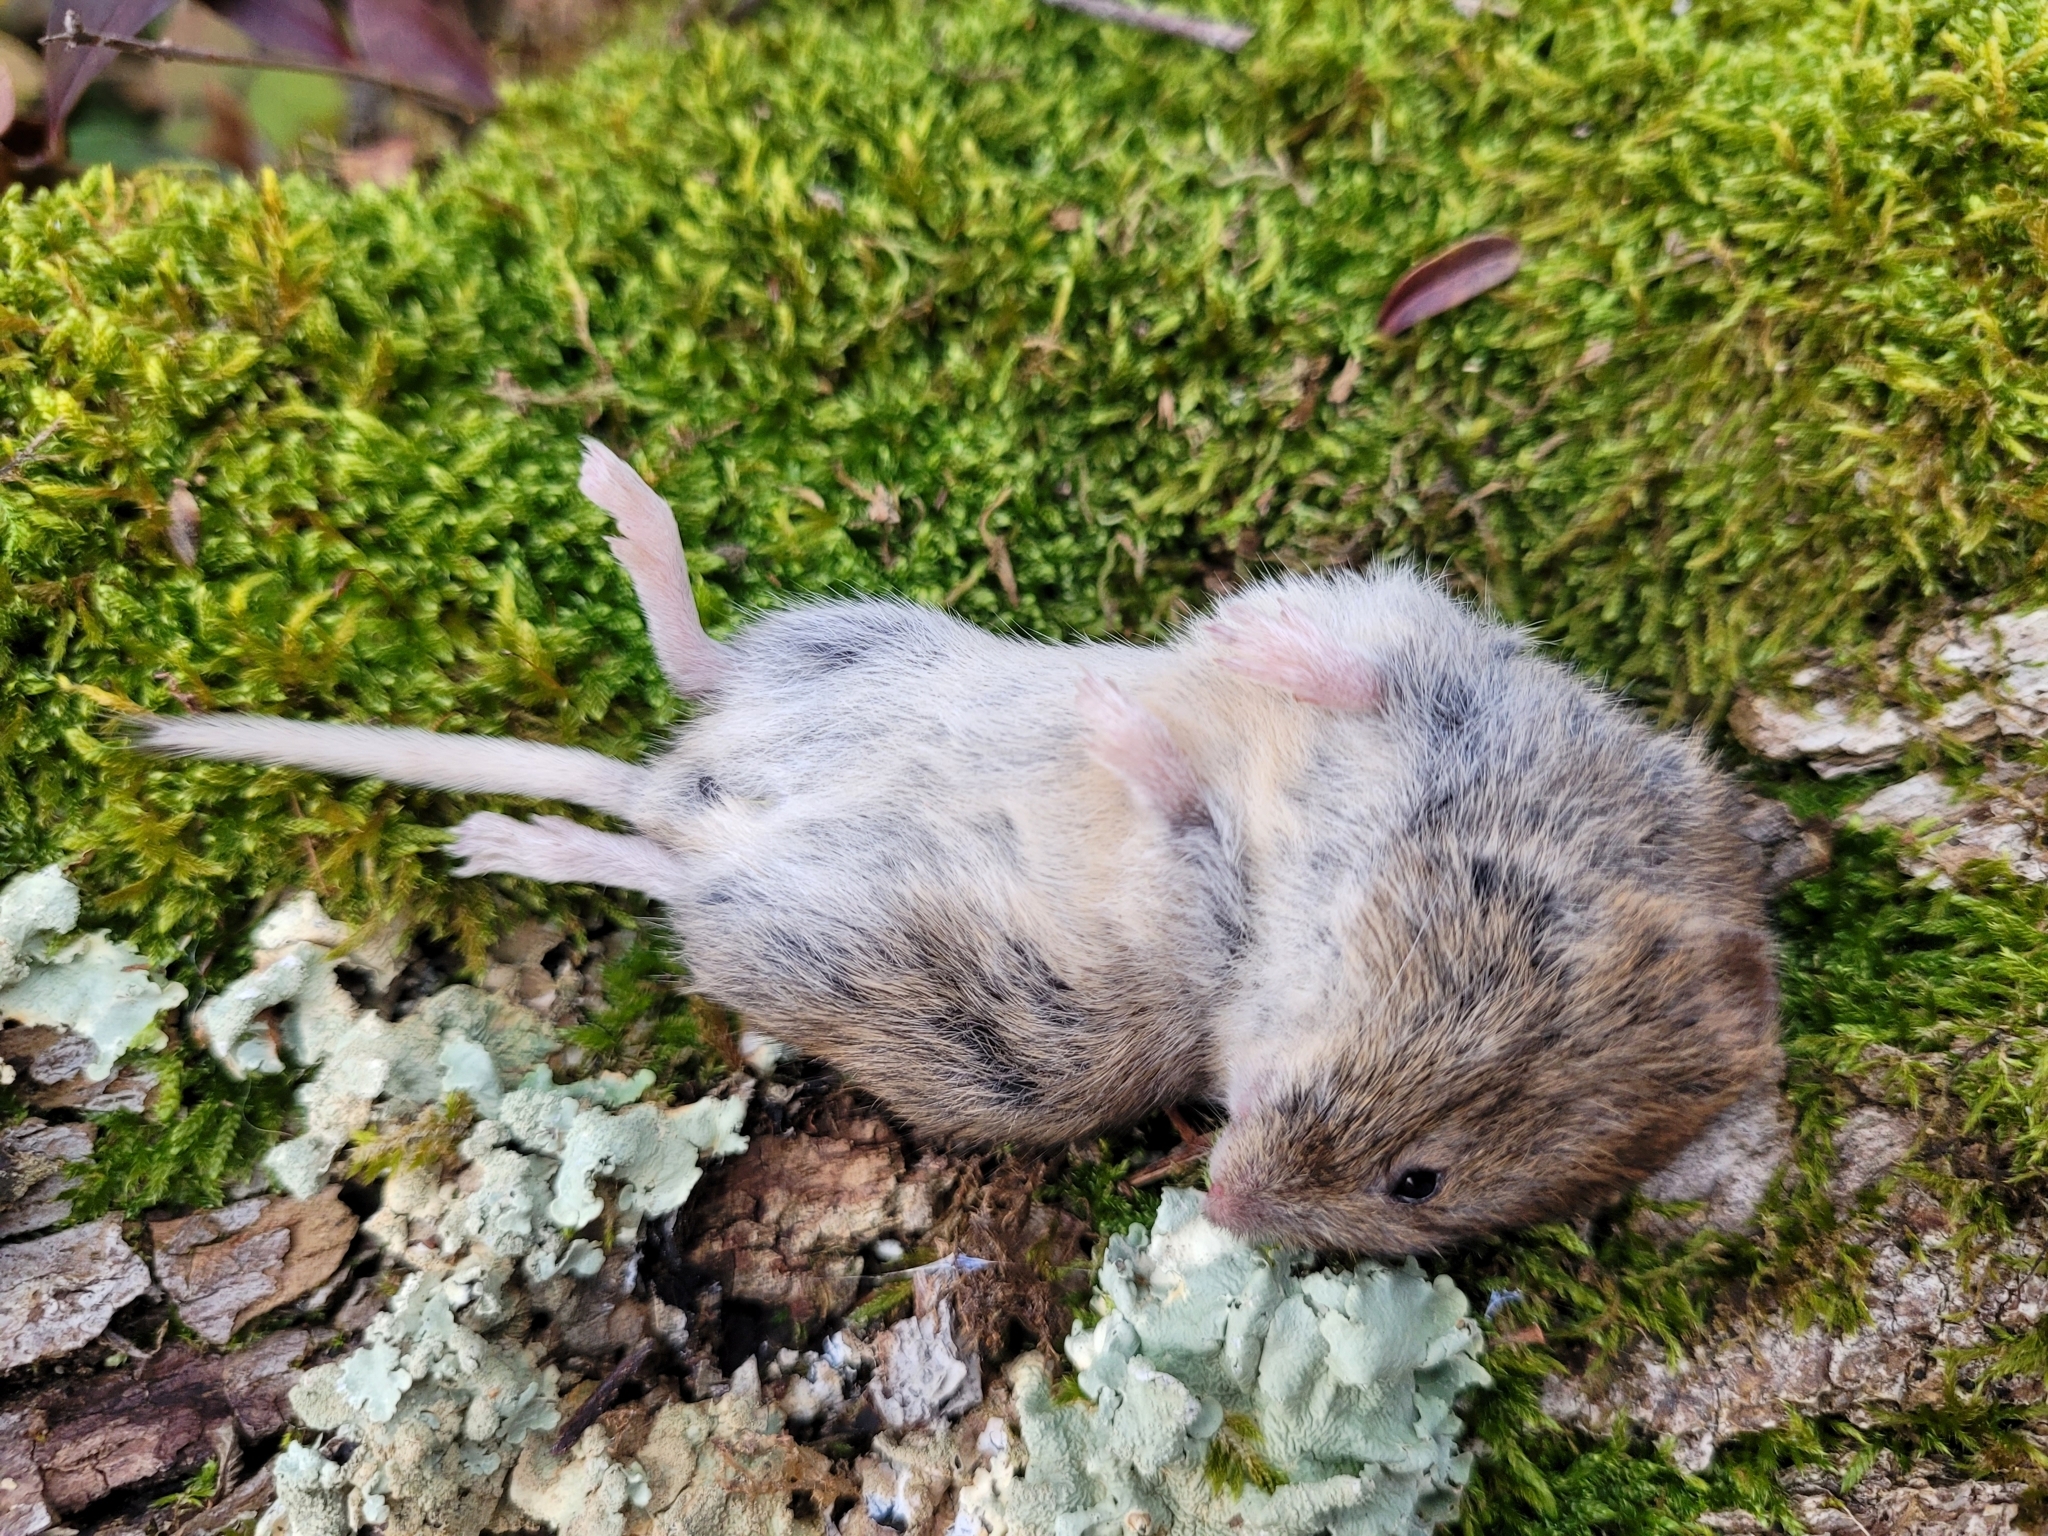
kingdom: Animalia
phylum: Chordata
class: Mammalia
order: Rodentia
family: Cricetidae
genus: Myodes
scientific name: Myodes glareolus
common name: Bank vole
